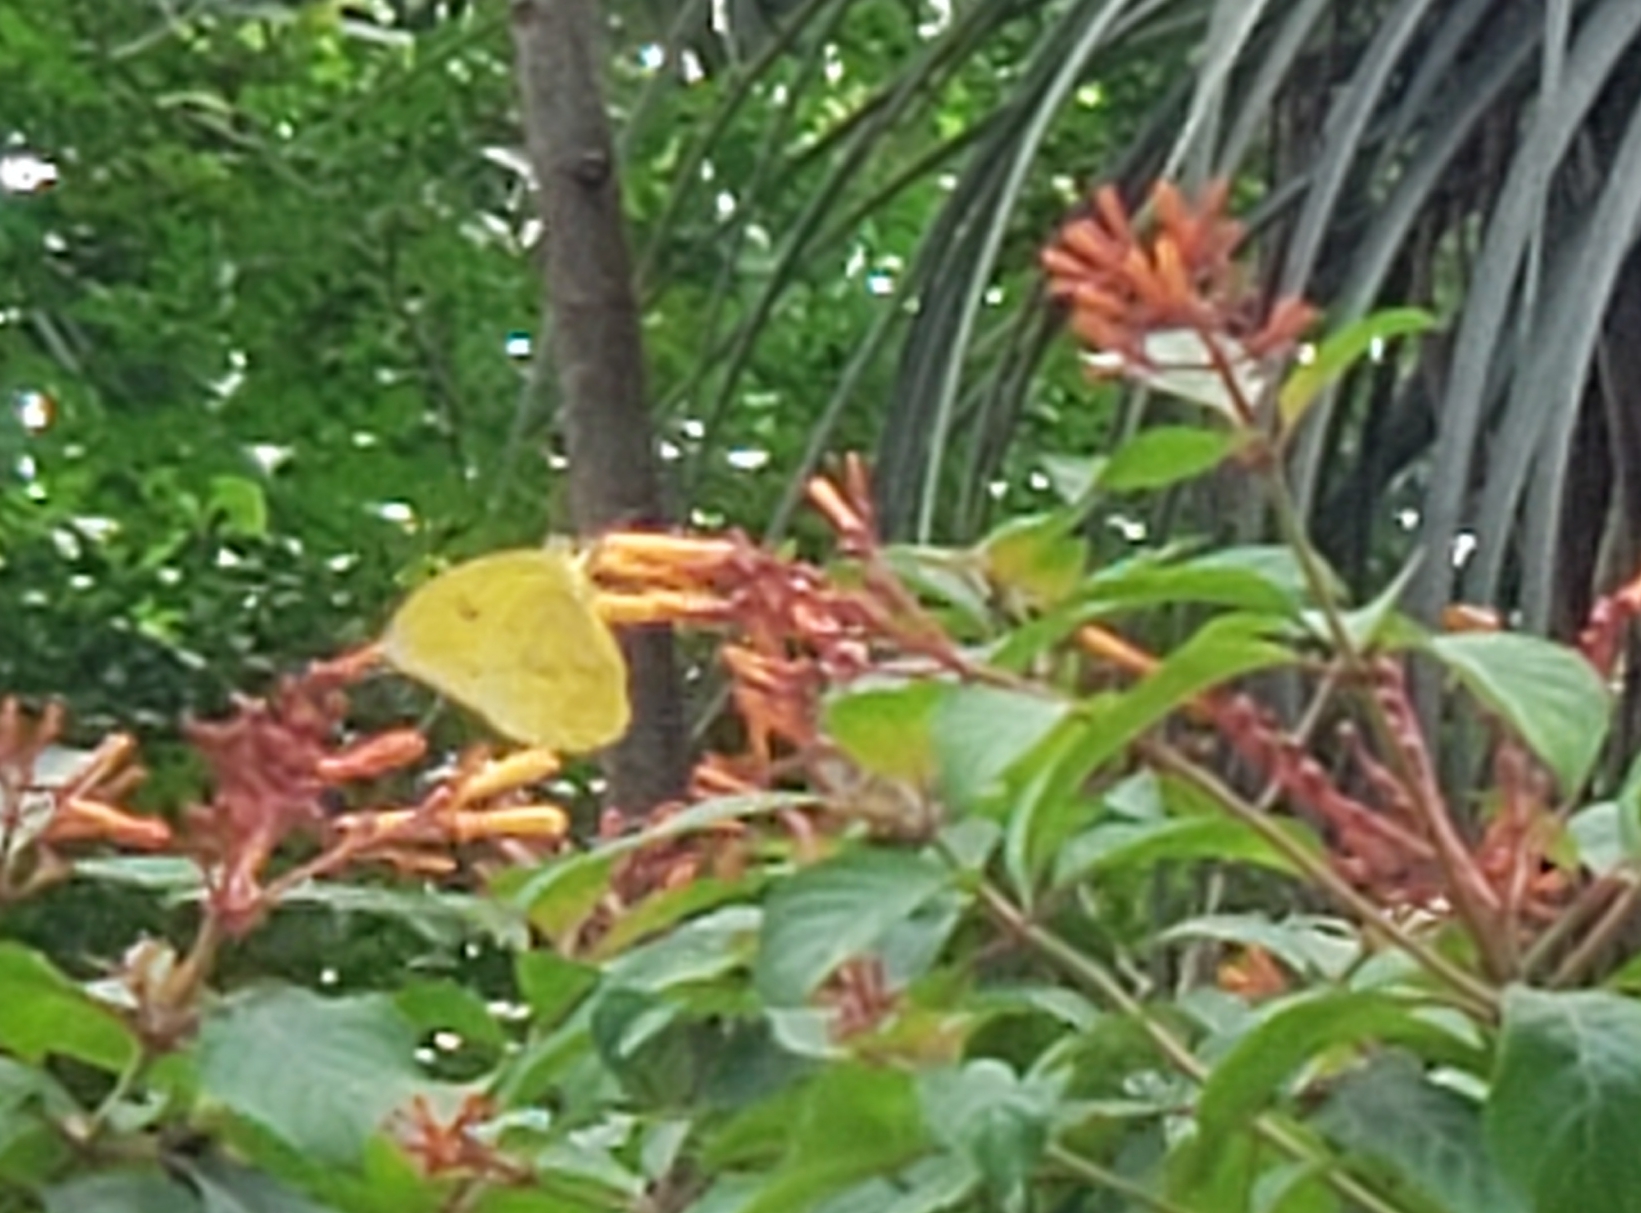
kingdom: Animalia
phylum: Arthropoda
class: Insecta
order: Lepidoptera
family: Pieridae
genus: Phoebis
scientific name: Phoebis philea
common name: Orange-barred giant sulphur
